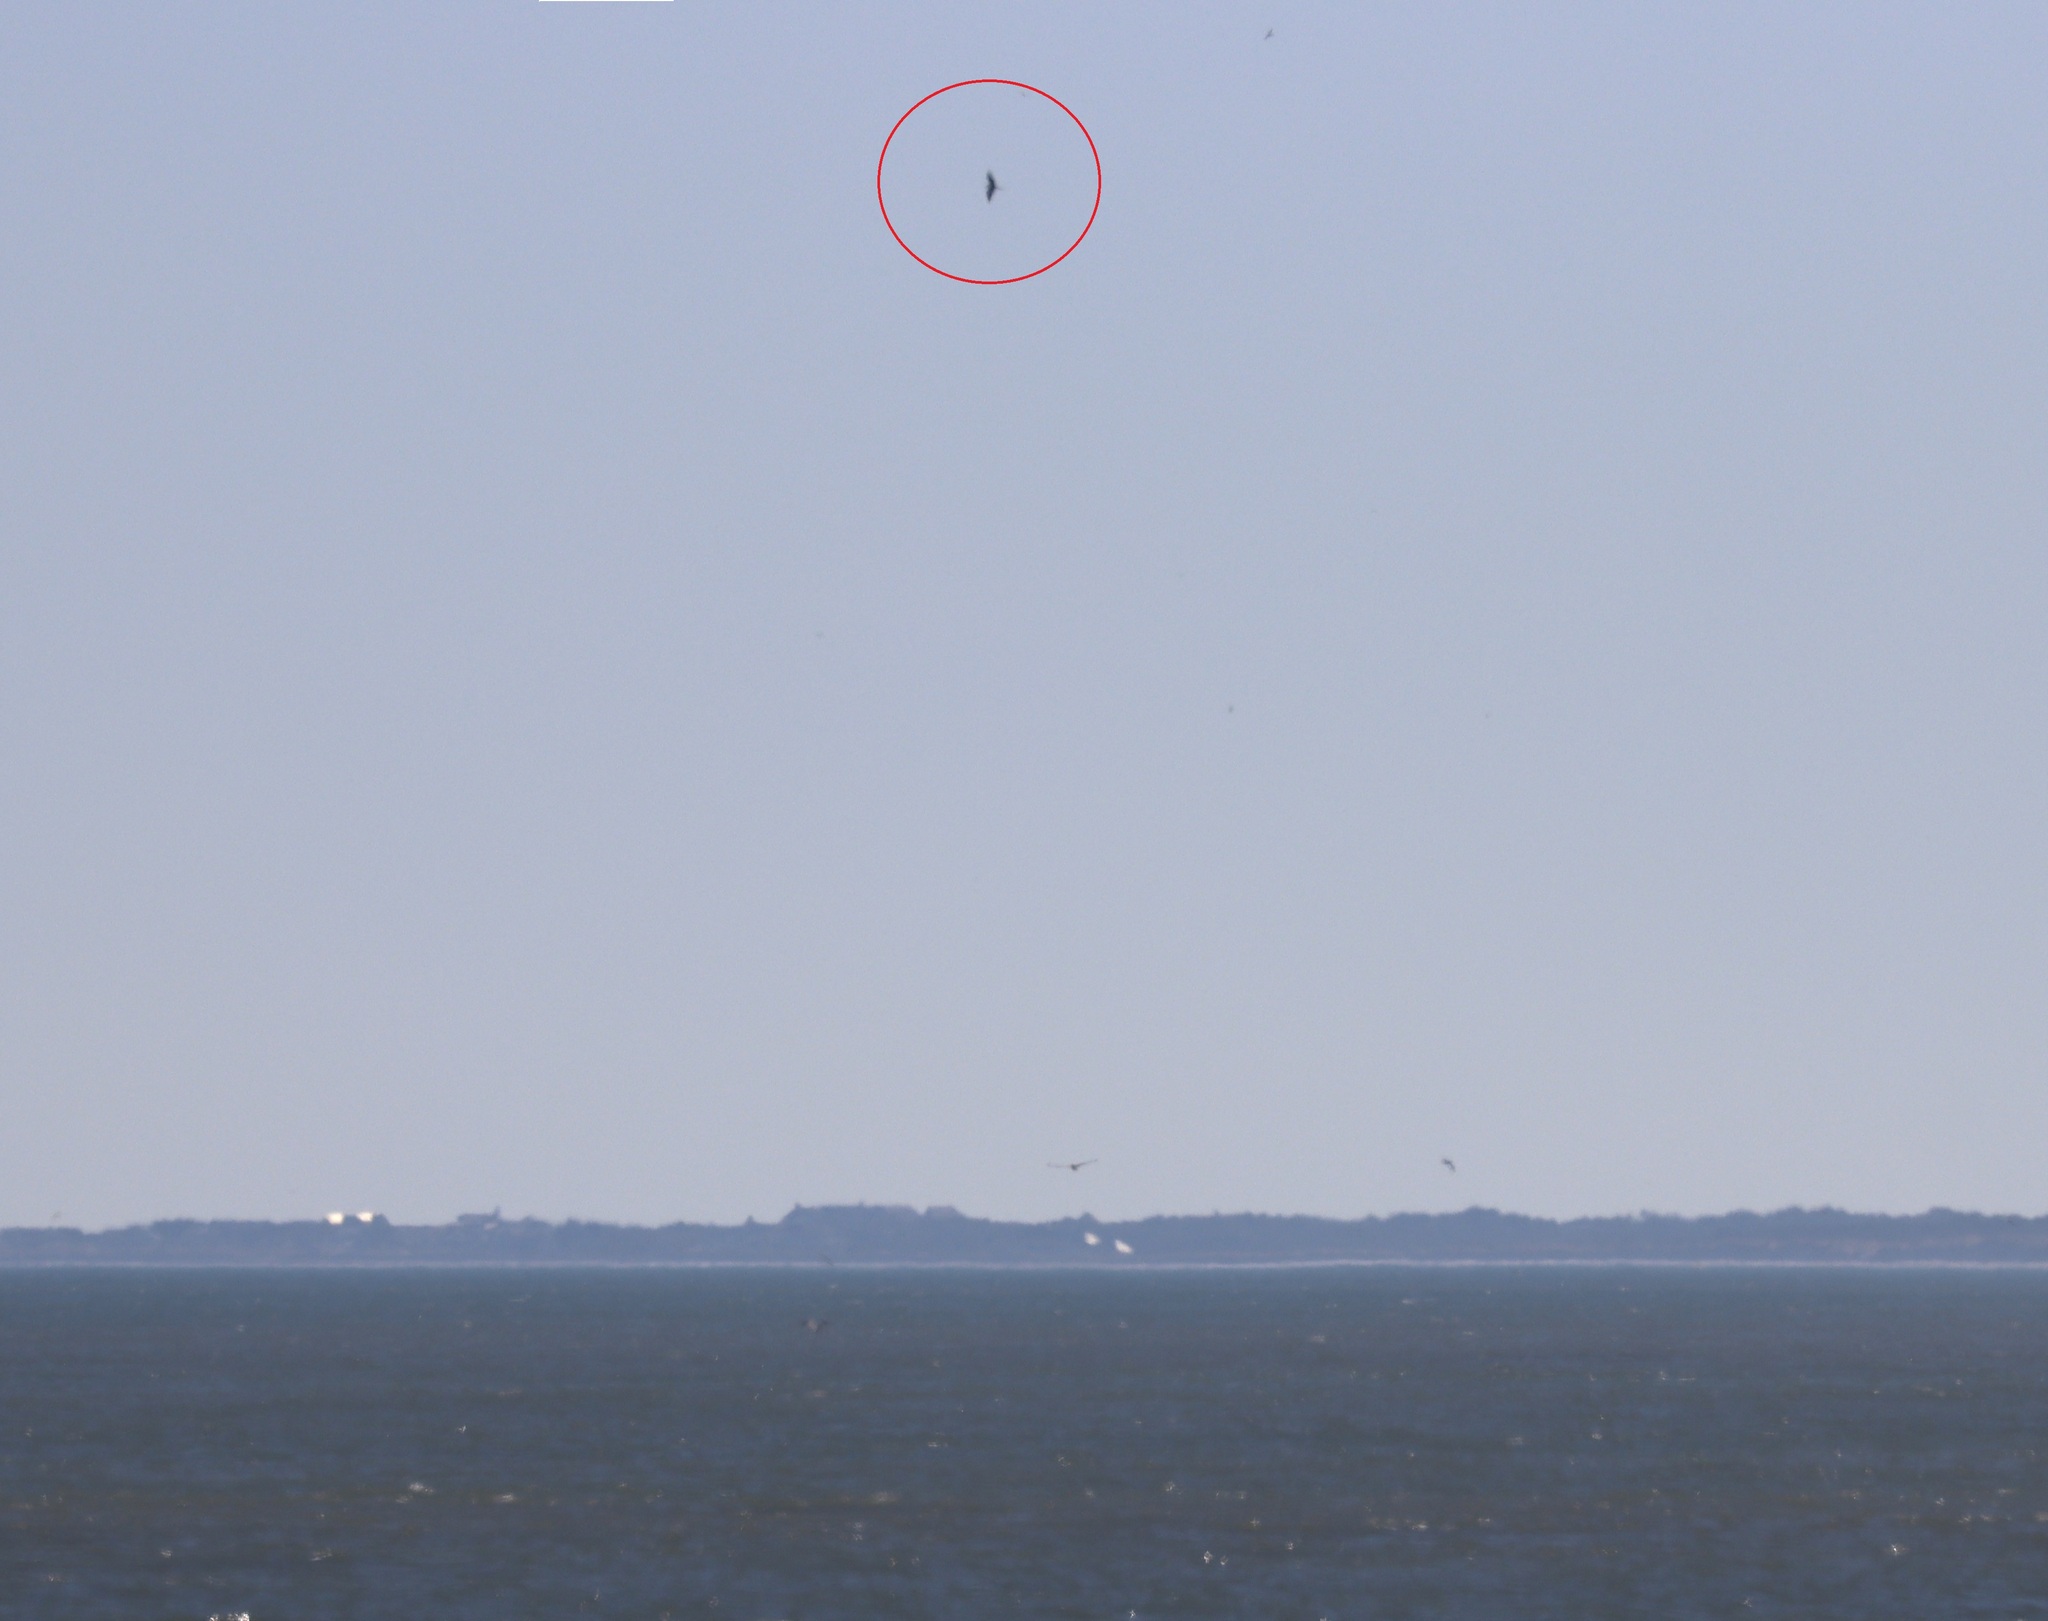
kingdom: Animalia
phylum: Chordata
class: Aves
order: Suliformes
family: Fregatidae
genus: Fregata
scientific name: Fregata magnificens
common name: Magnificent frigatebird
